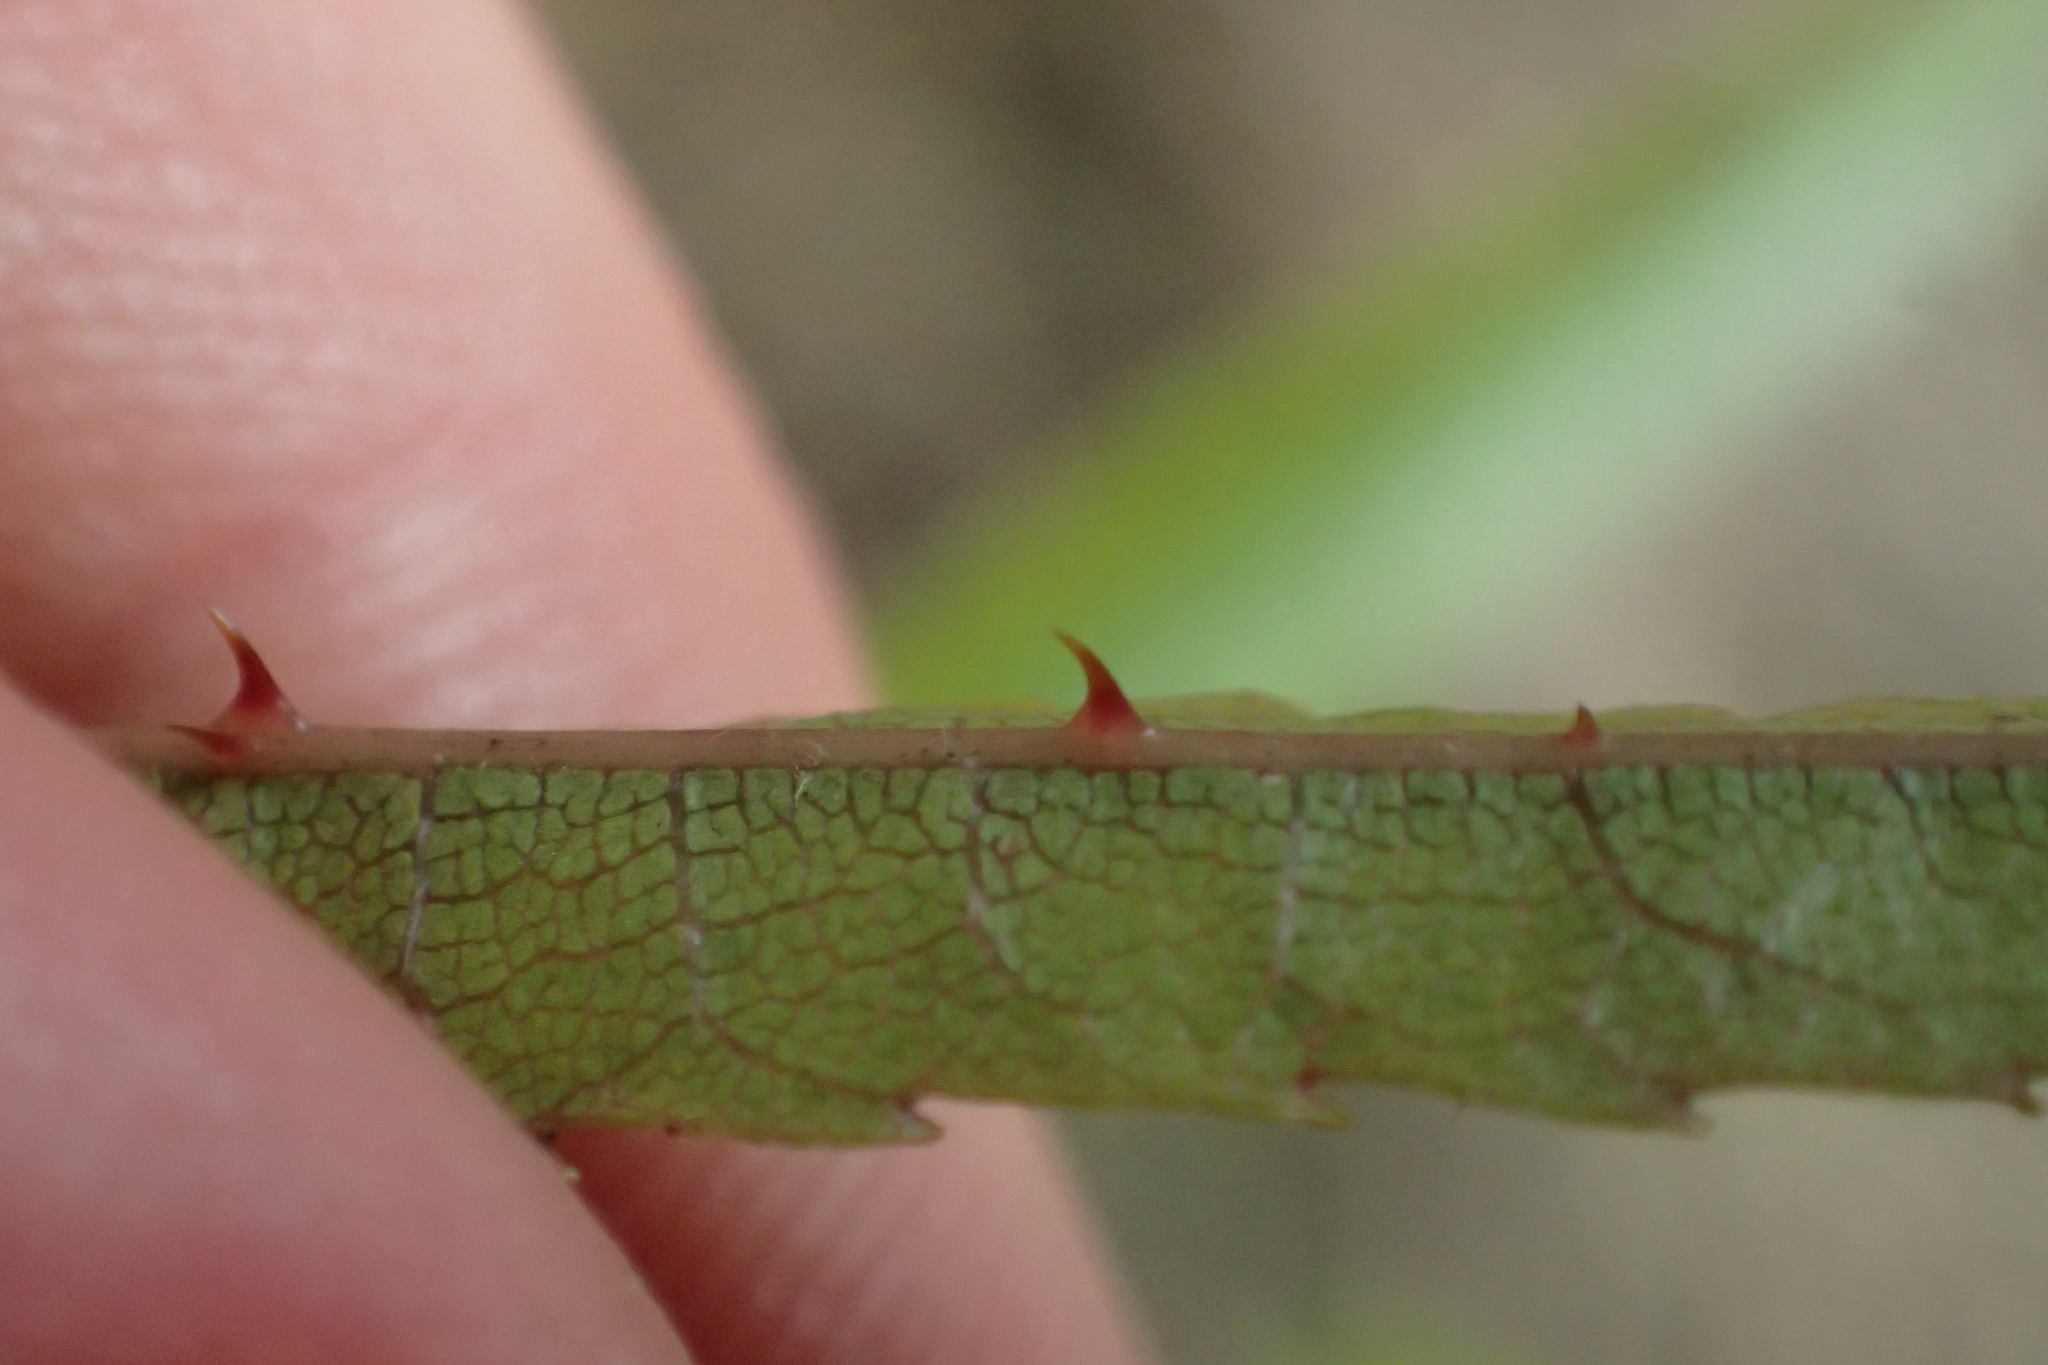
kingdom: Plantae
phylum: Tracheophyta
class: Magnoliopsida
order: Rosales
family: Rosaceae
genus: Rubus
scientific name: Rubus cissoides
